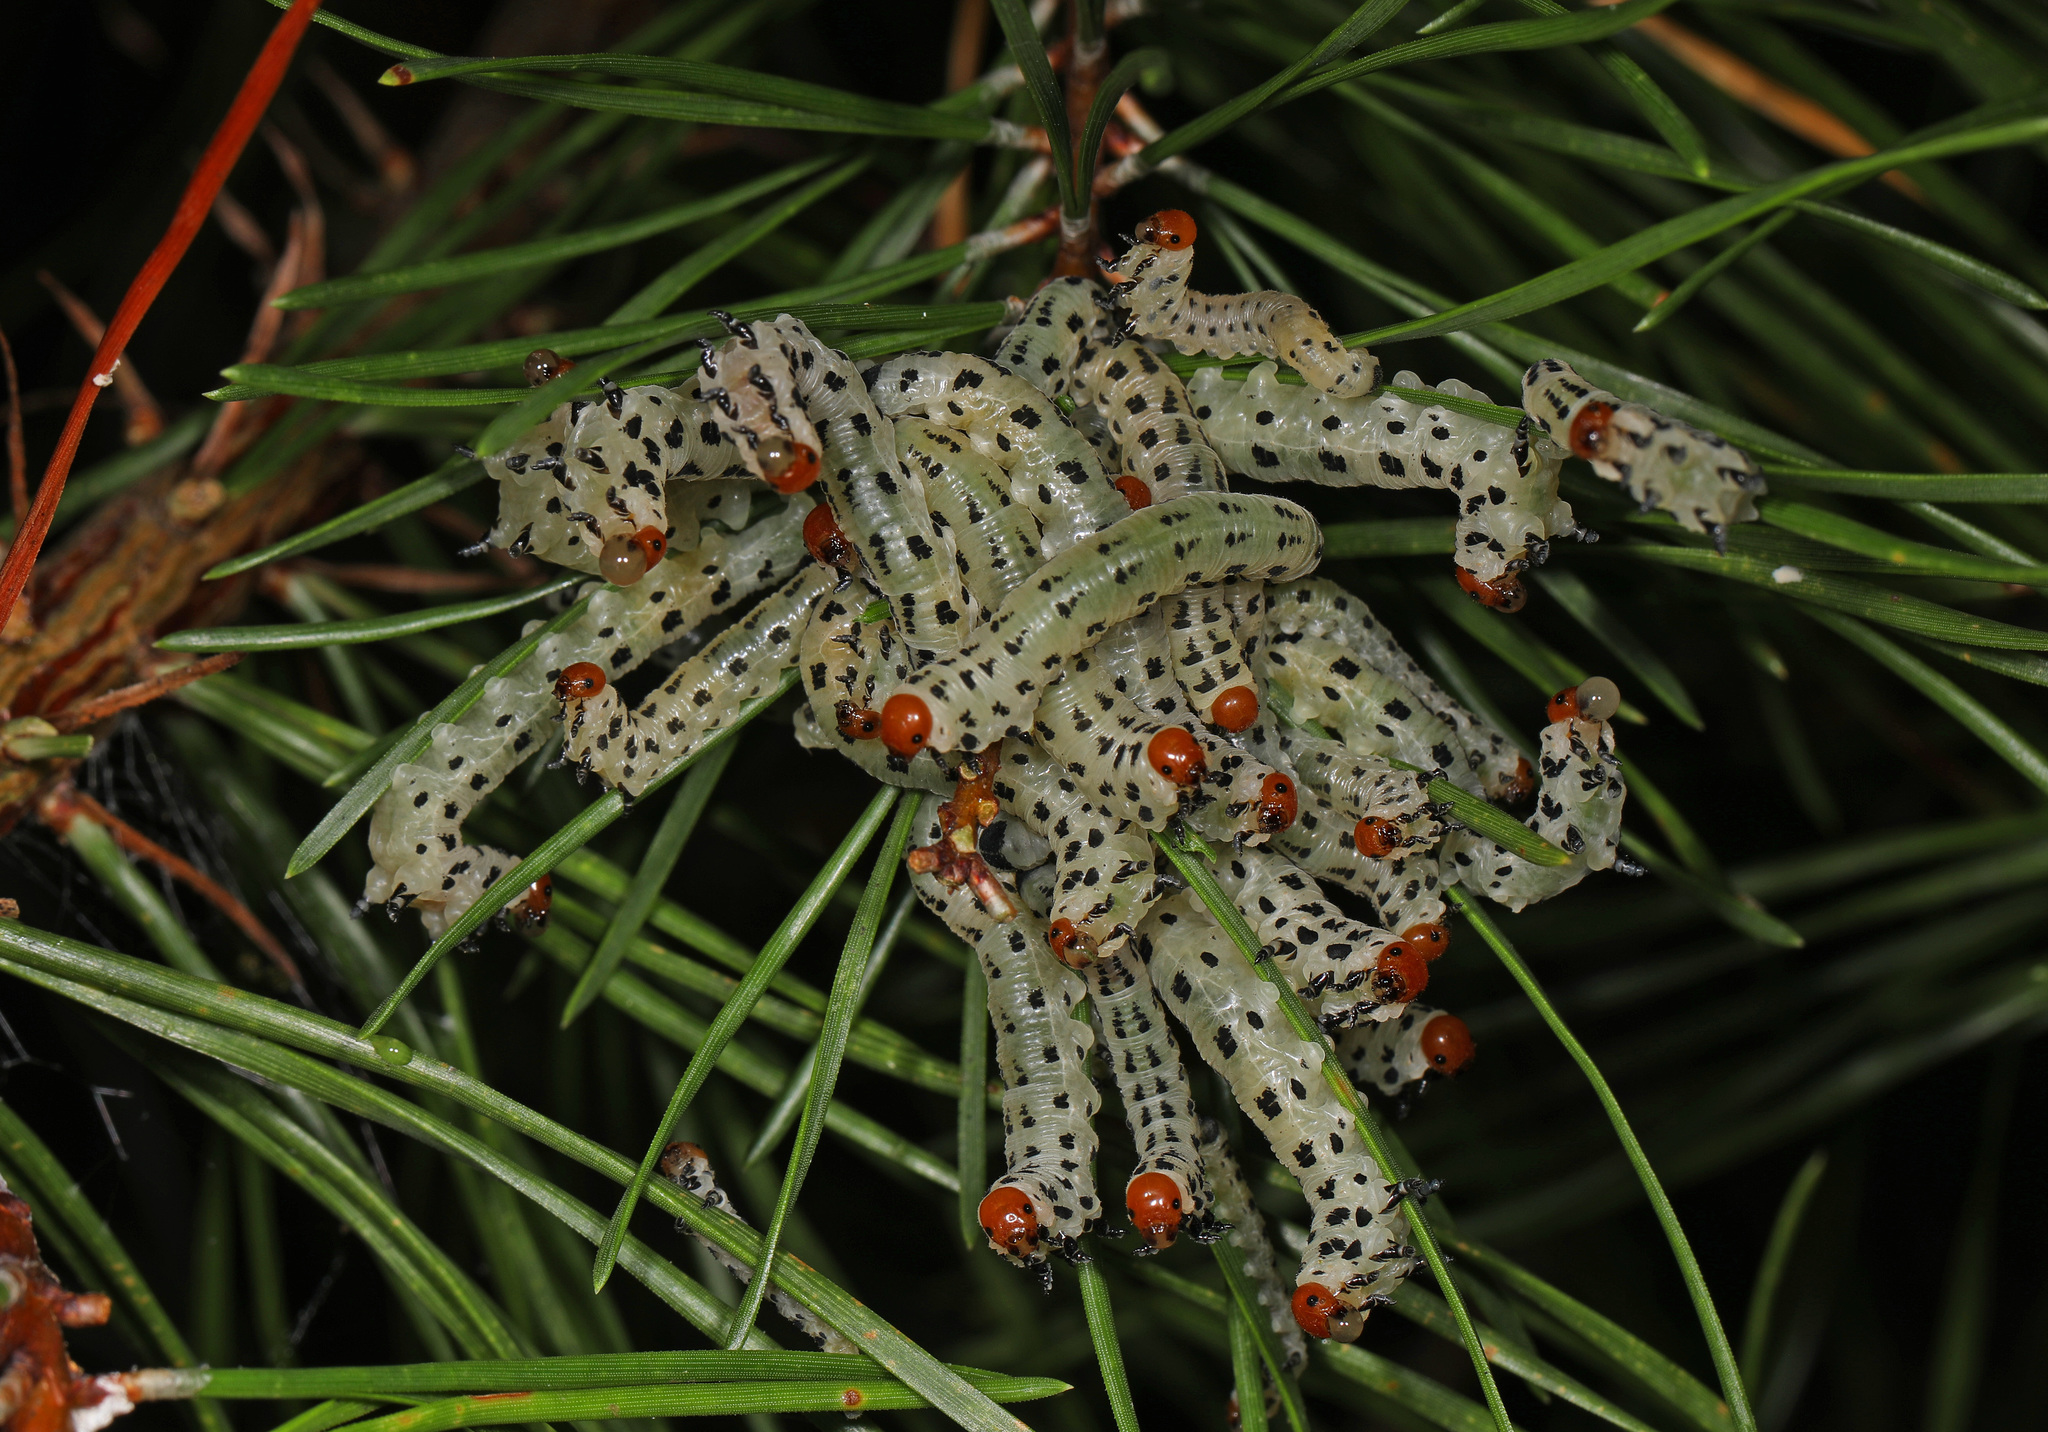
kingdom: Animalia
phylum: Arthropoda
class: Insecta
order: Hymenoptera
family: Diprionidae
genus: Neodiprion
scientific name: Neodiprion lecontei
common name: Redheaded pine sawfly
